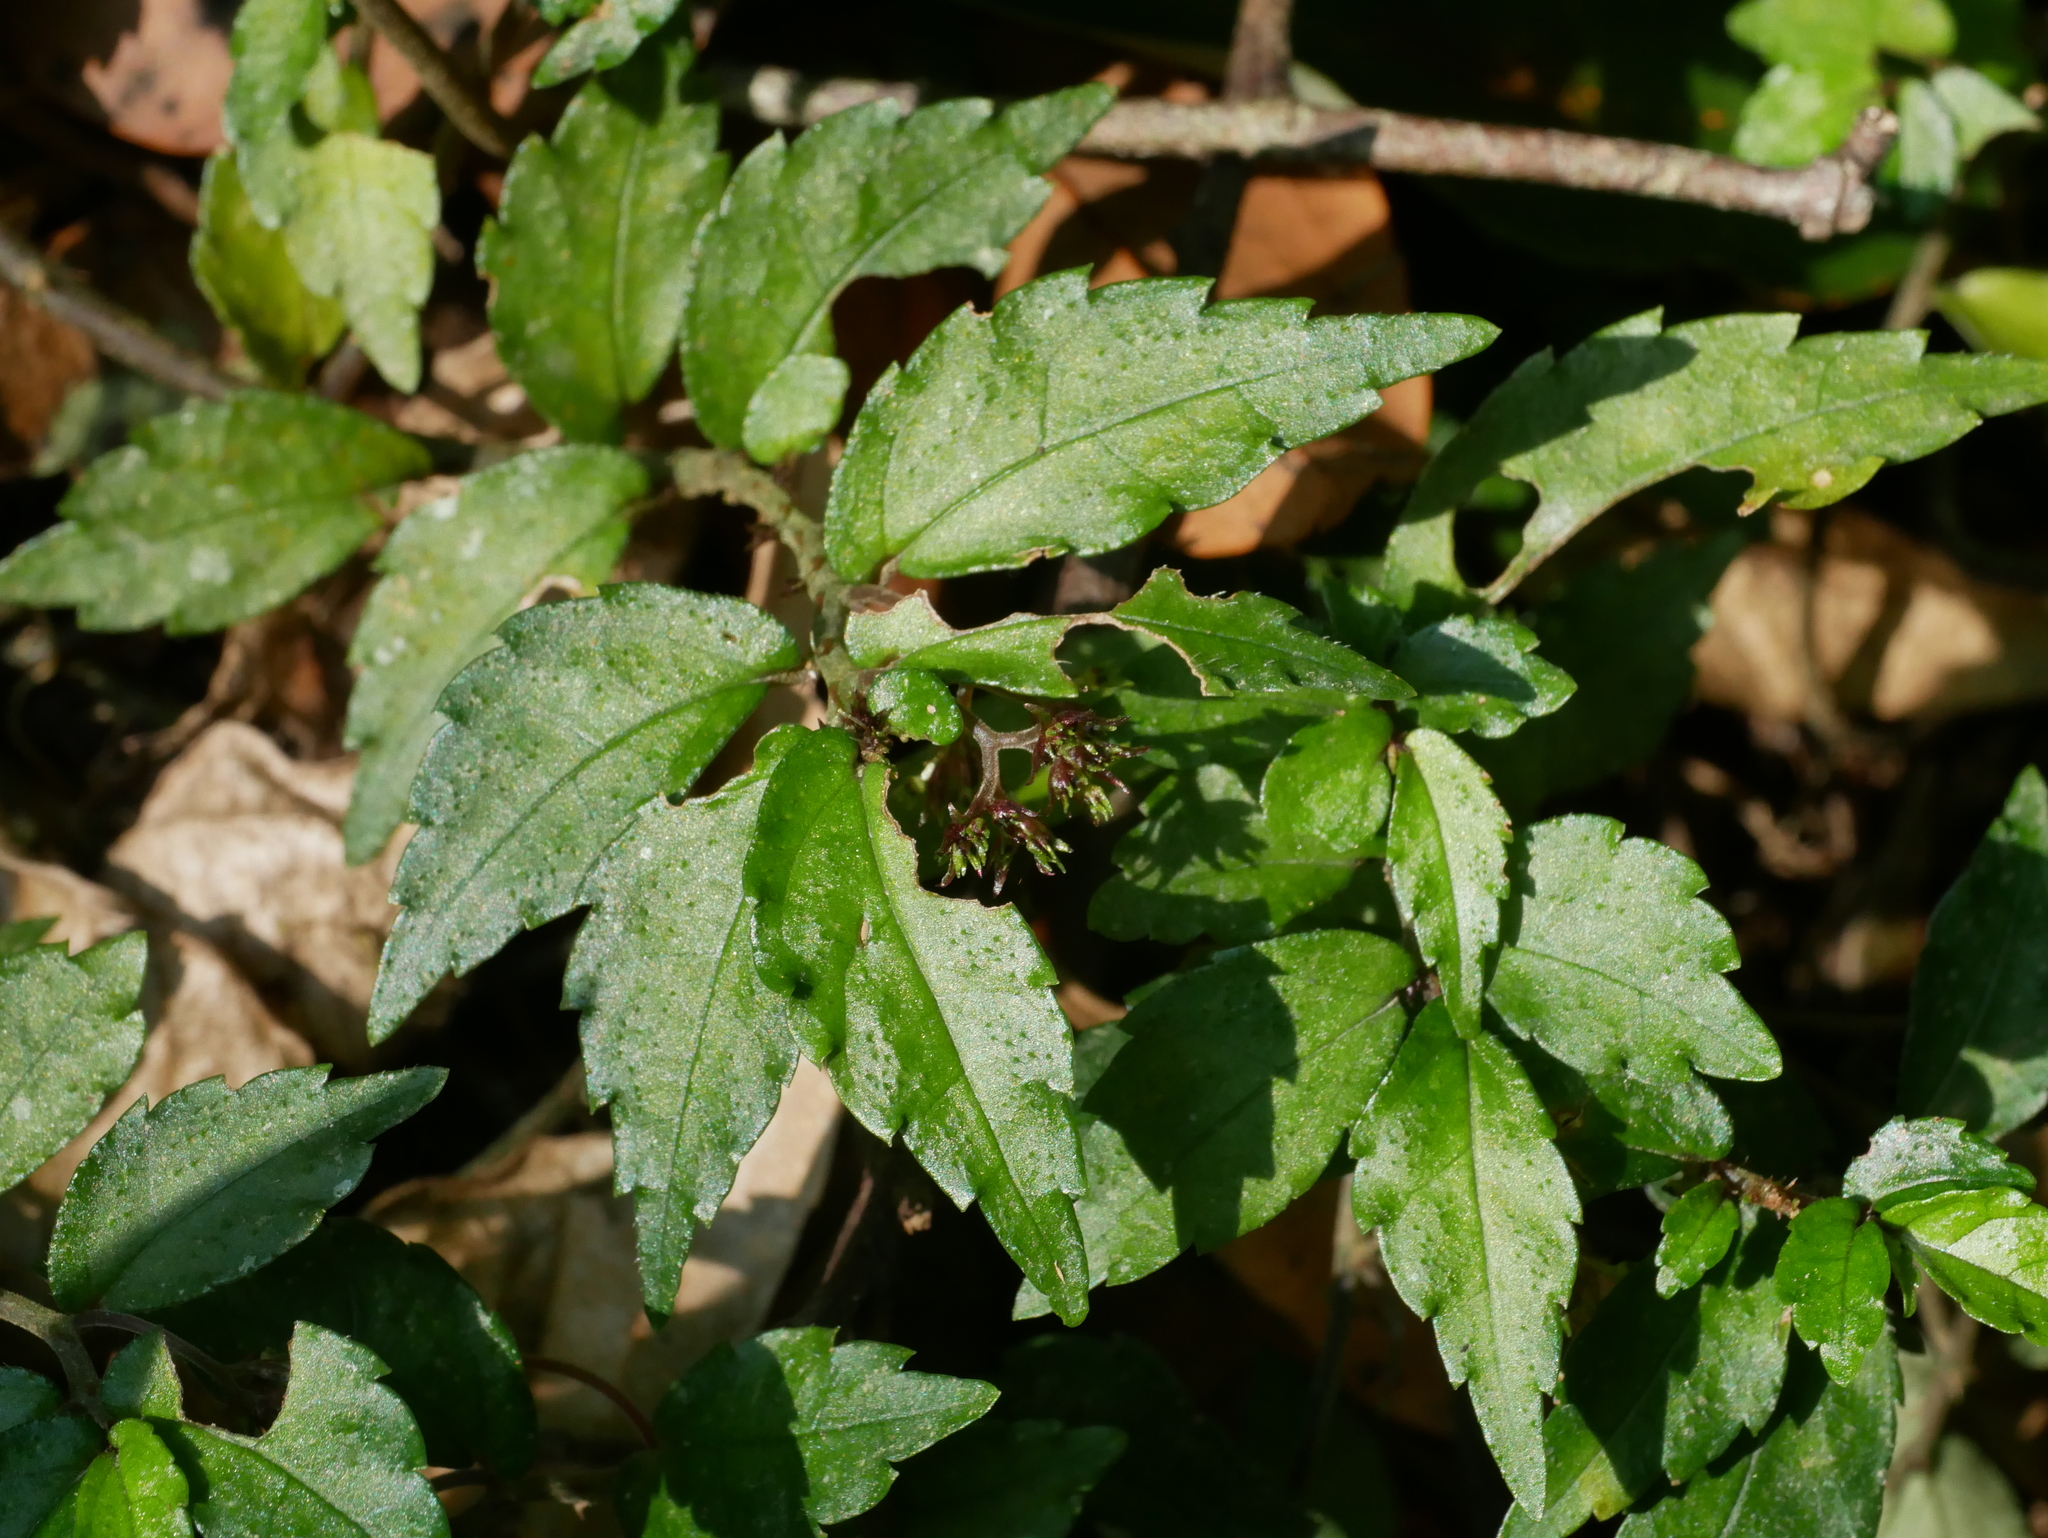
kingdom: Plantae
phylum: Tracheophyta
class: Magnoliopsida
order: Rosales
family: Urticaceae
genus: Elatostema
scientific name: Elatostema radicans
